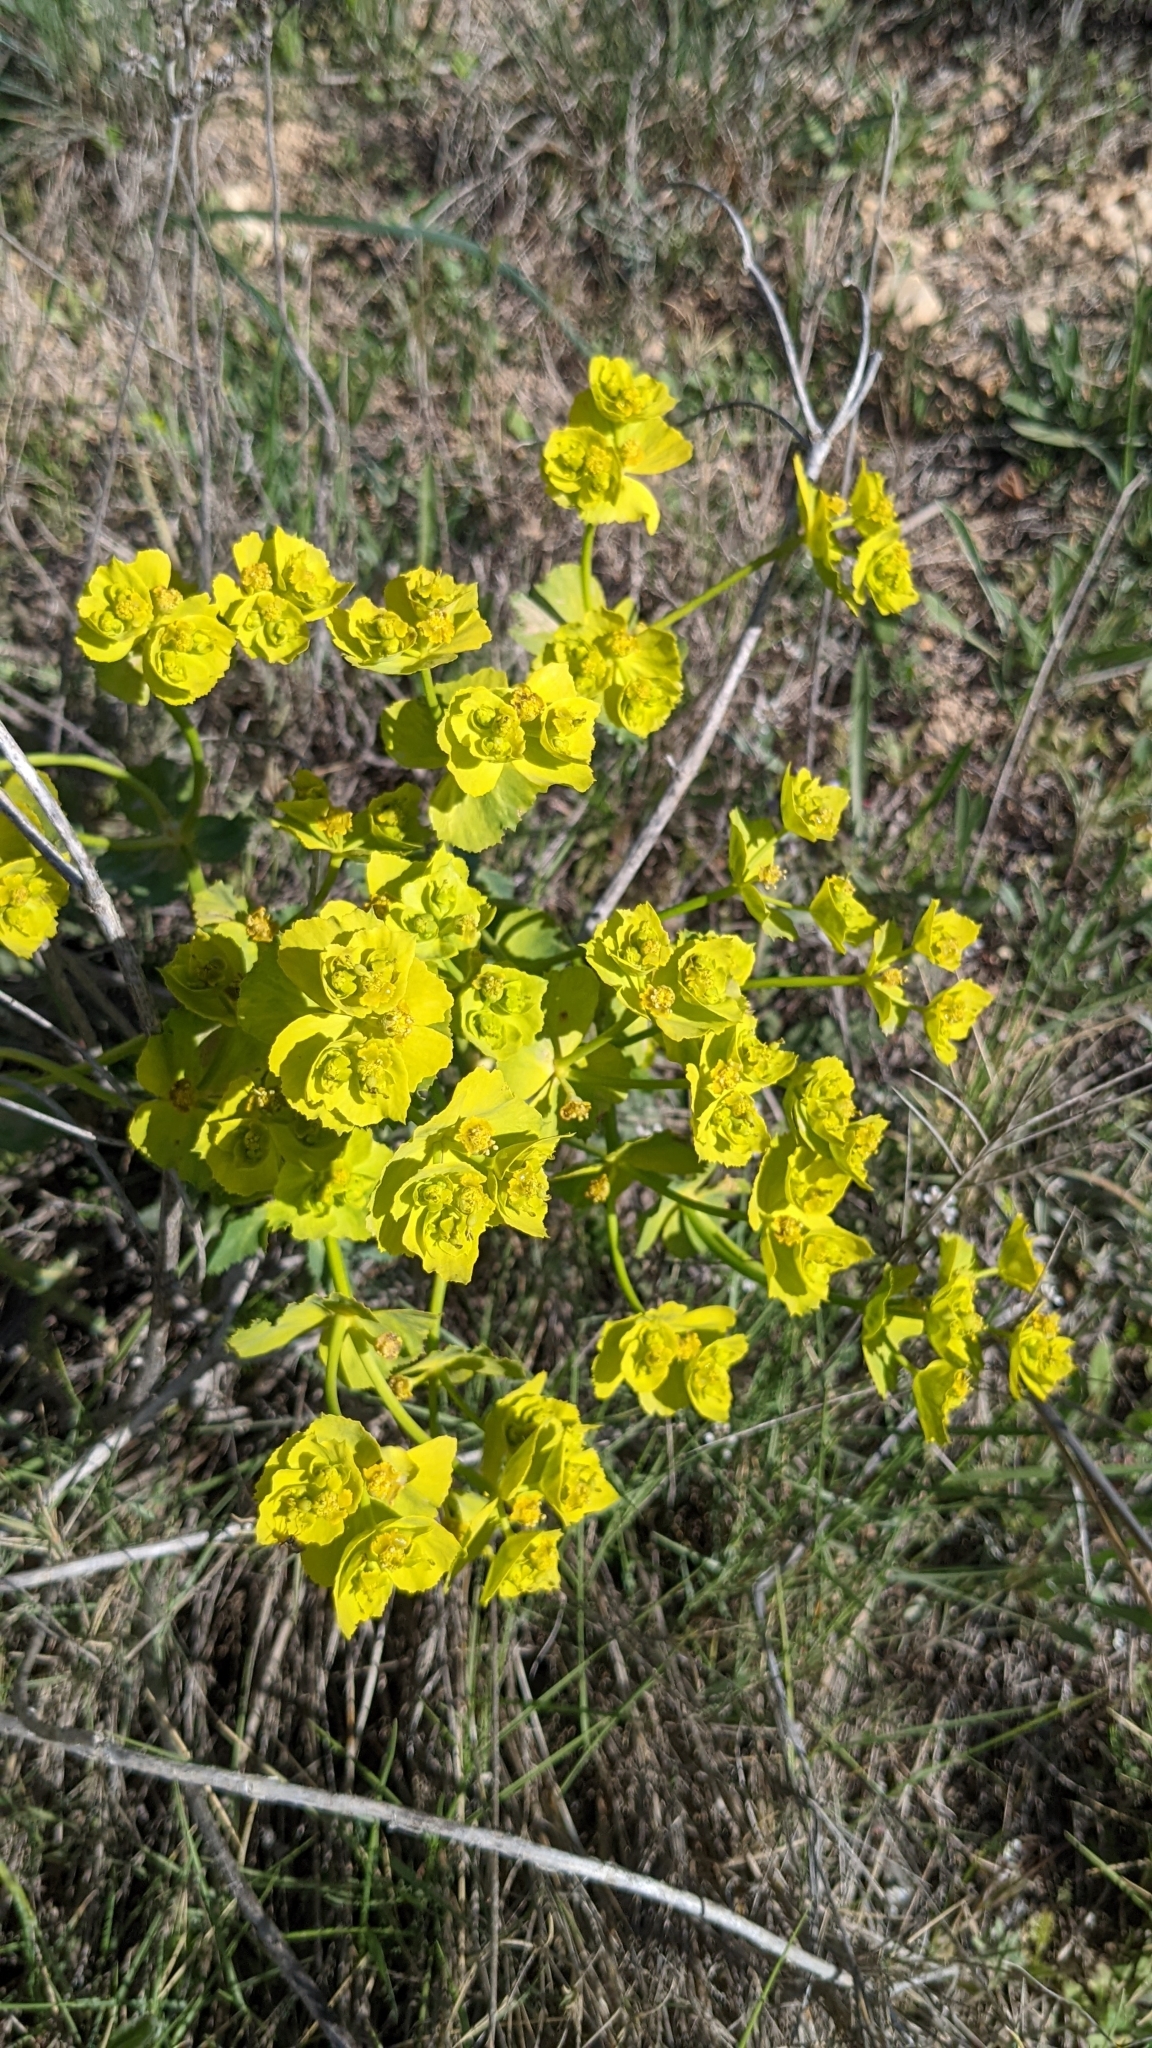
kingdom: Plantae
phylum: Tracheophyta
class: Magnoliopsida
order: Malpighiales
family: Euphorbiaceae
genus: Euphorbia
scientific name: Euphorbia serrata
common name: Serrate spurge
